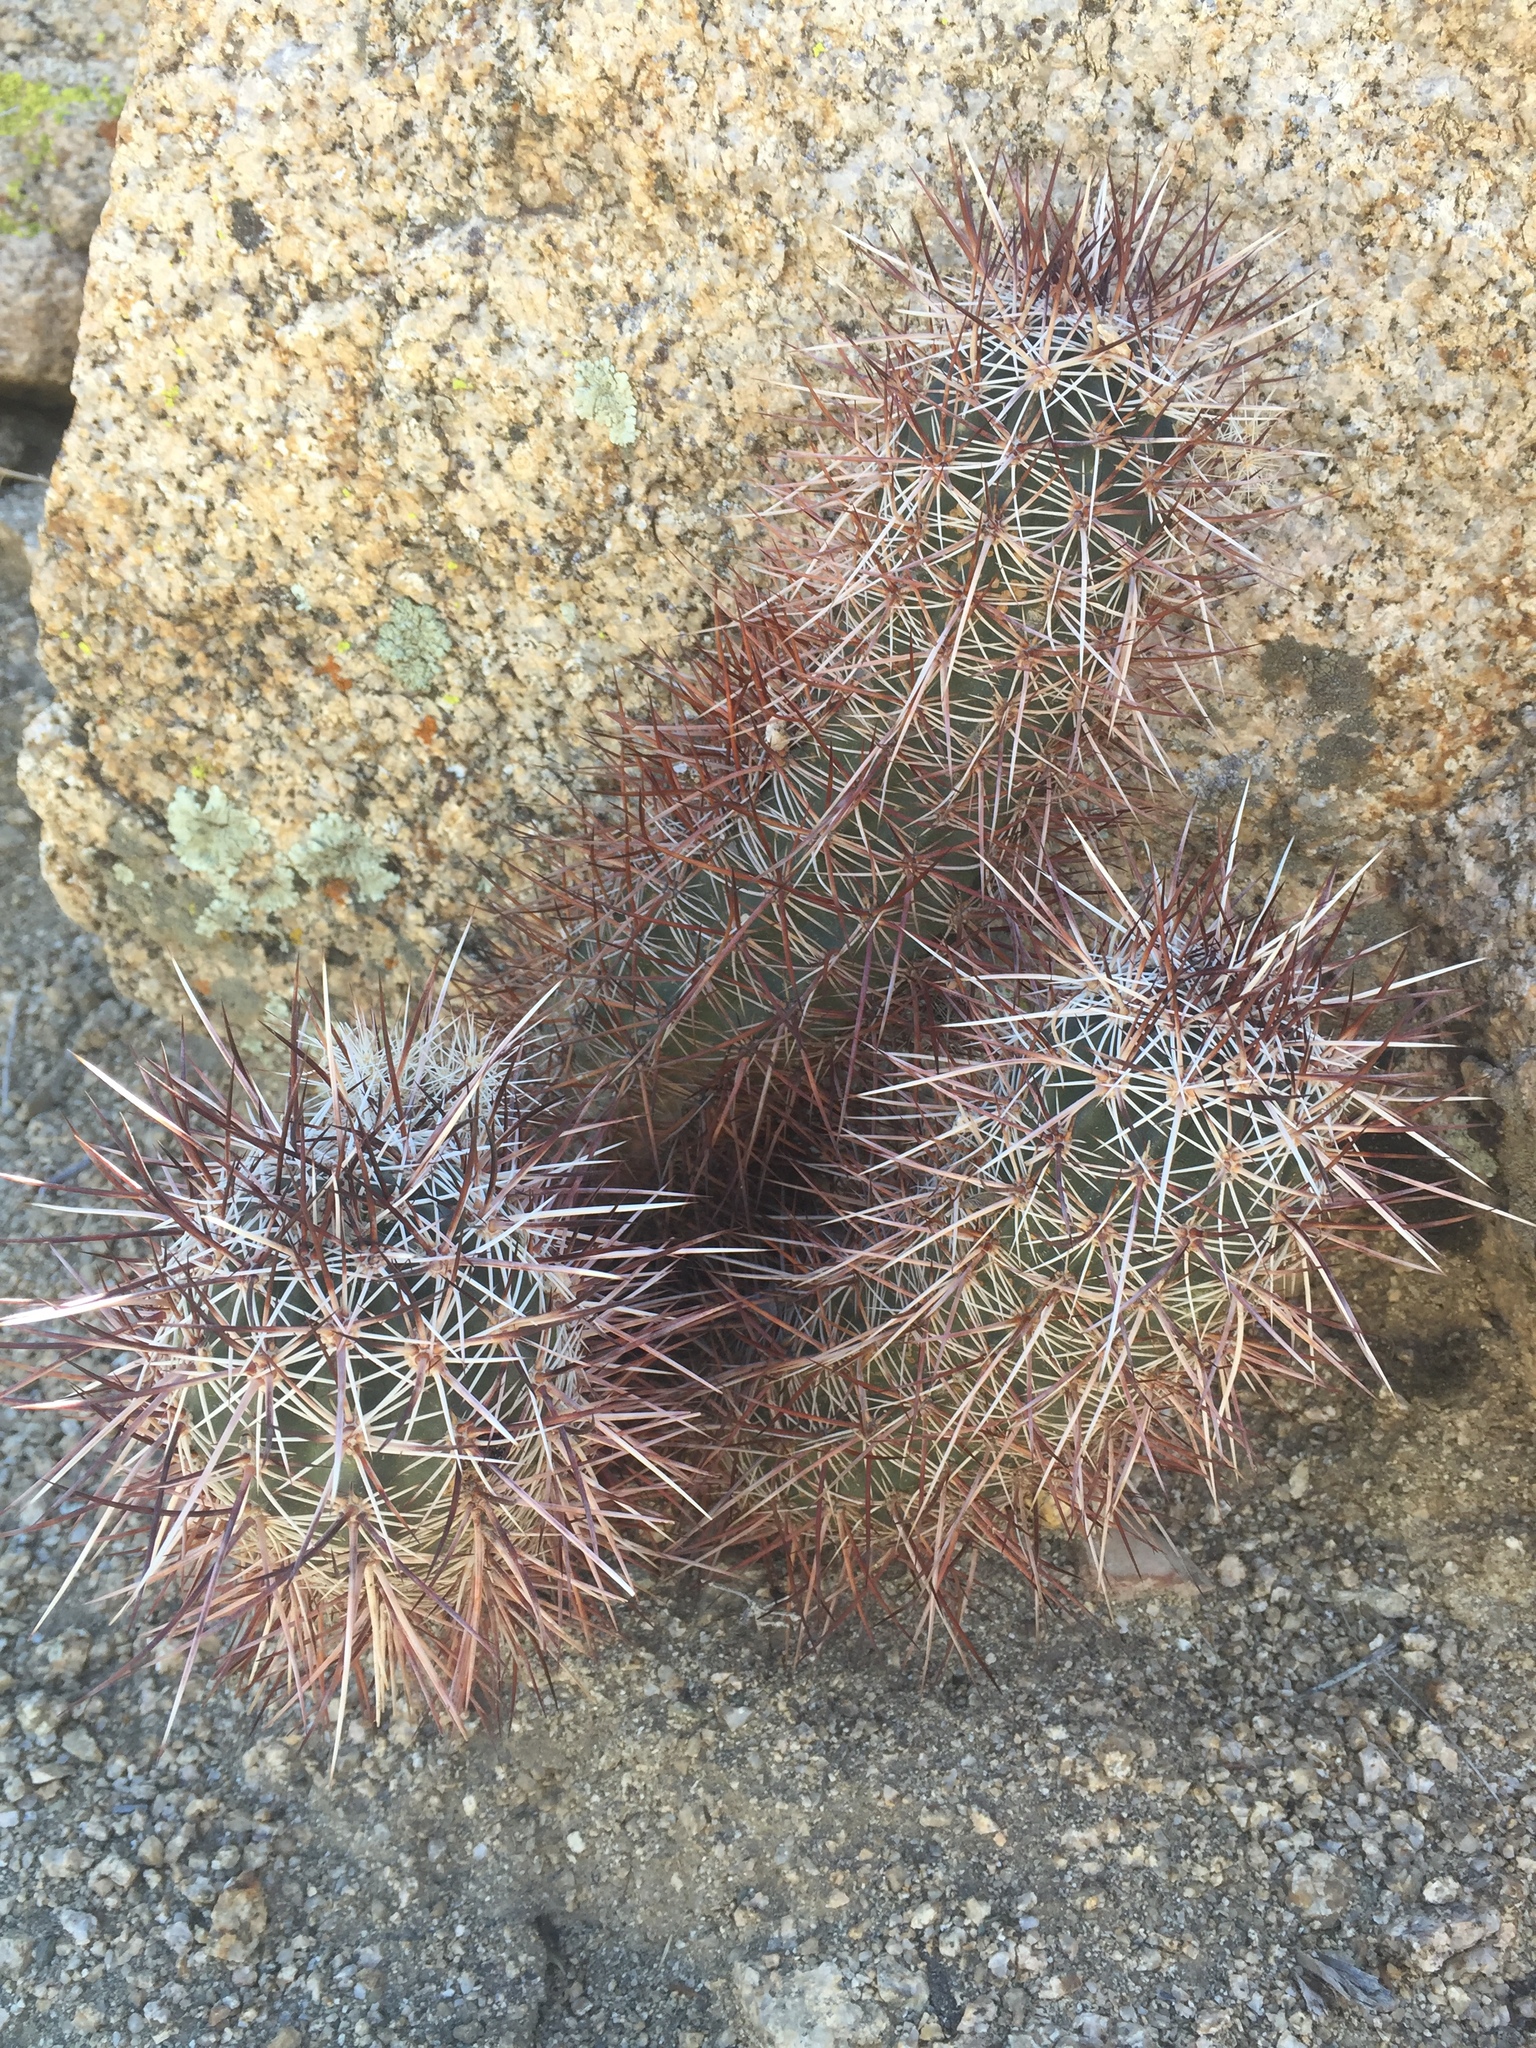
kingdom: Plantae
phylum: Tracheophyta
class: Magnoliopsida
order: Caryophyllales
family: Cactaceae
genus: Echinocereus
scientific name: Echinocereus engelmannii
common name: Engelmann's hedgehog cactus
